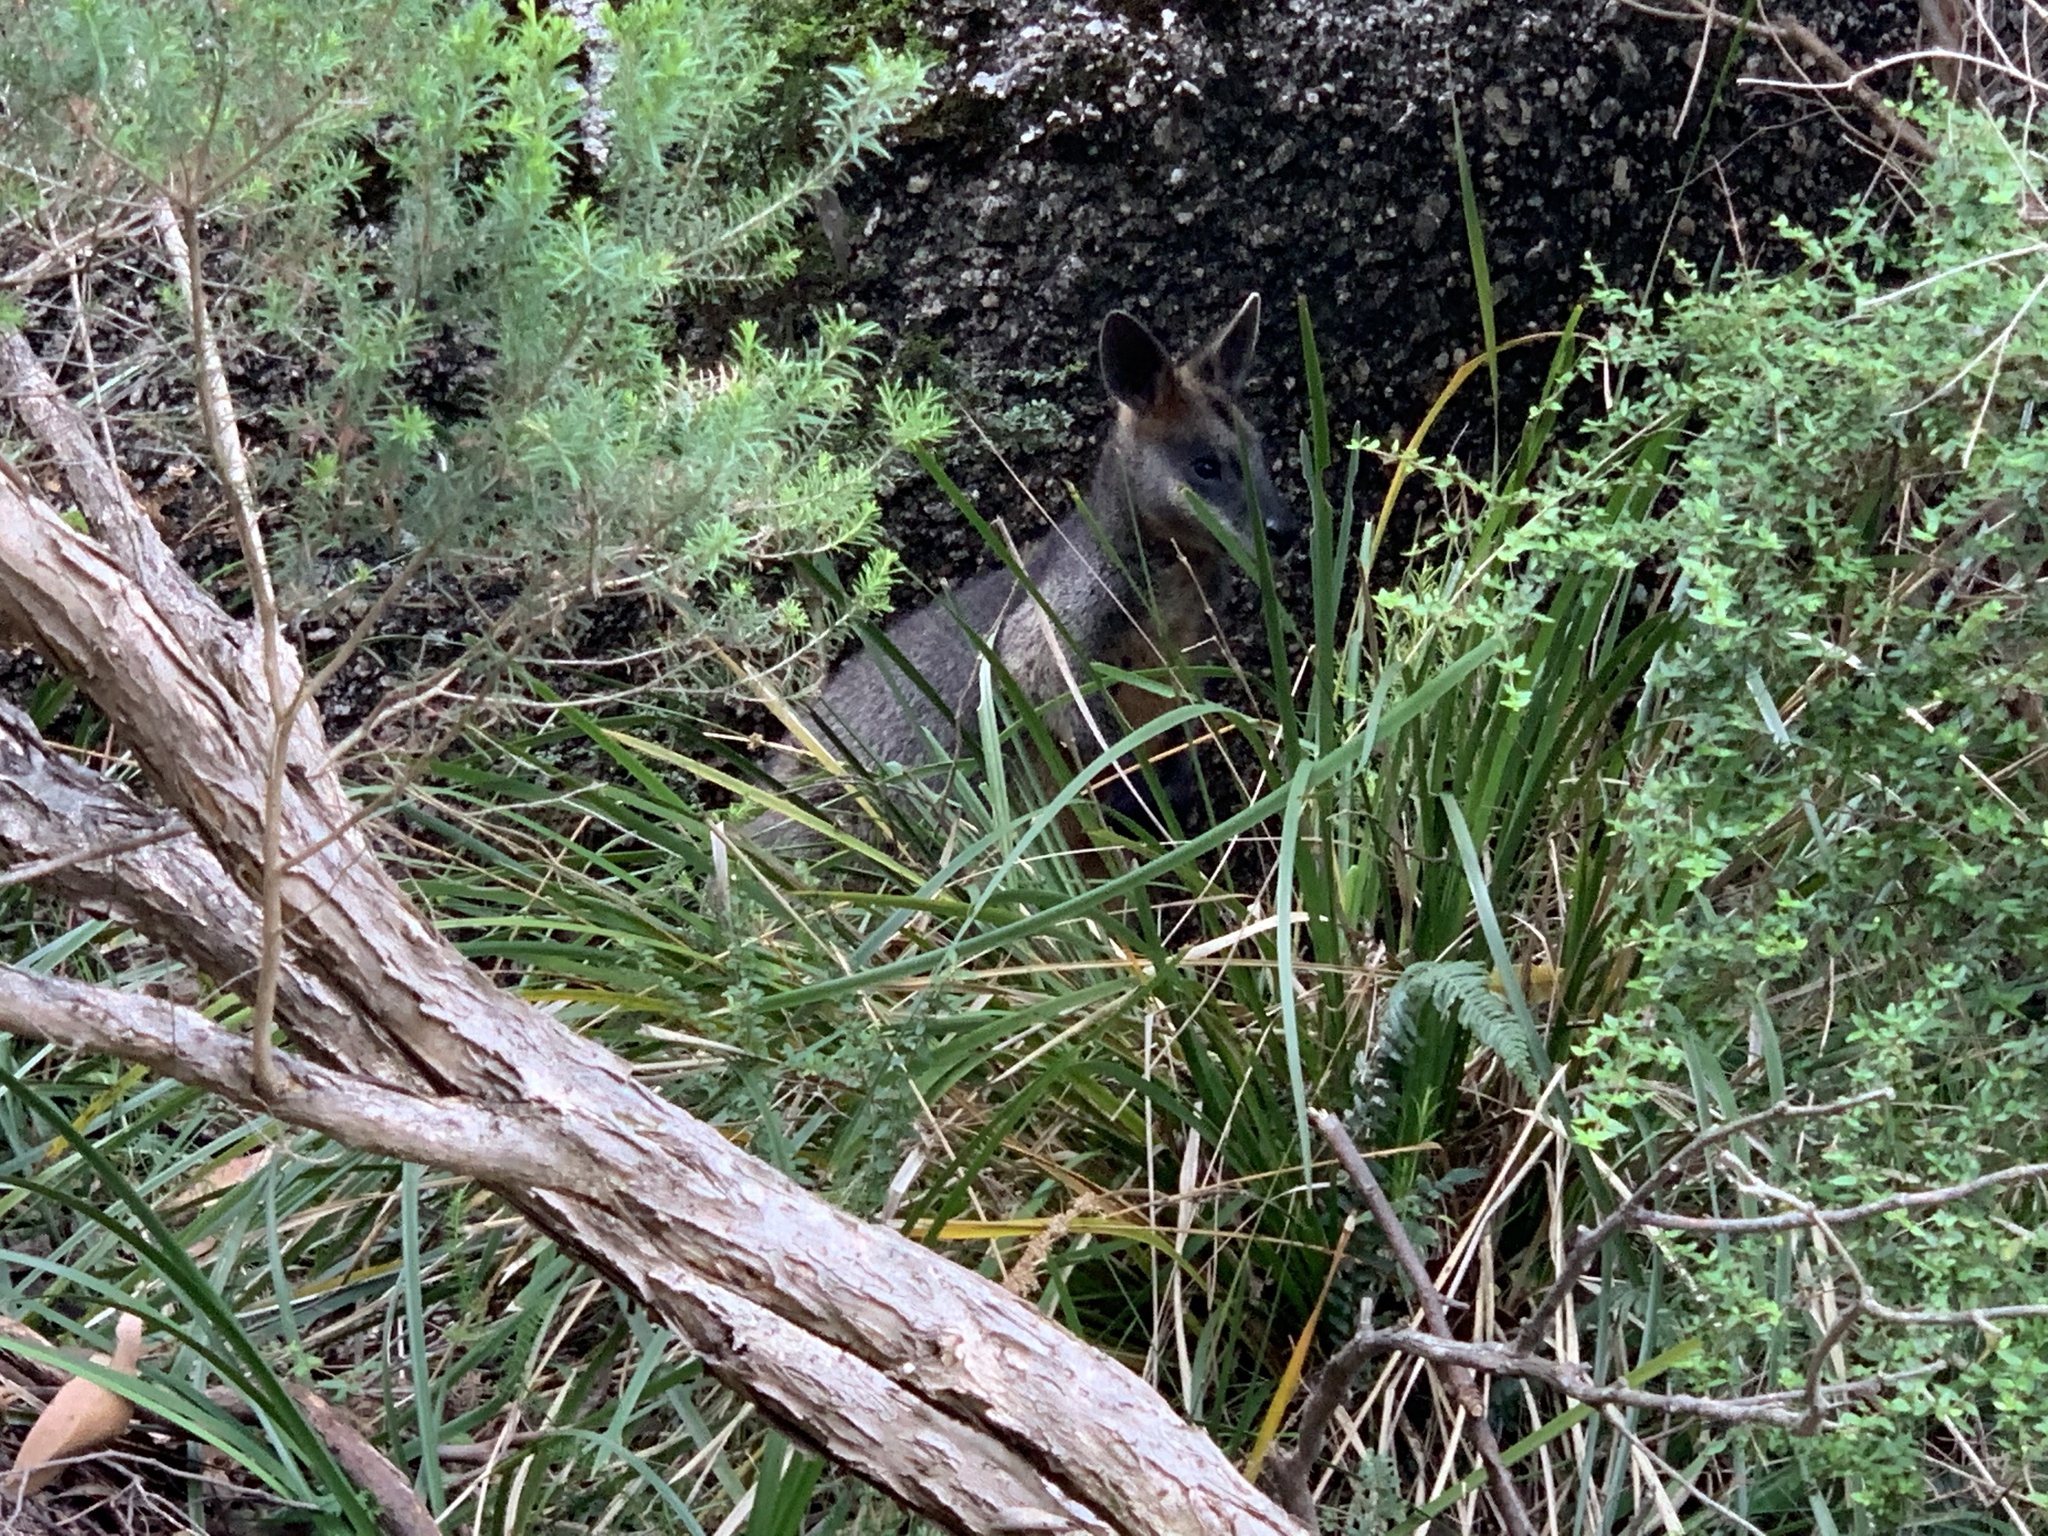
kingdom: Animalia
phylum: Chordata
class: Mammalia
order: Diprotodontia
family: Macropodidae
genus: Wallabia
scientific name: Wallabia bicolor
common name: Swamp wallaby
